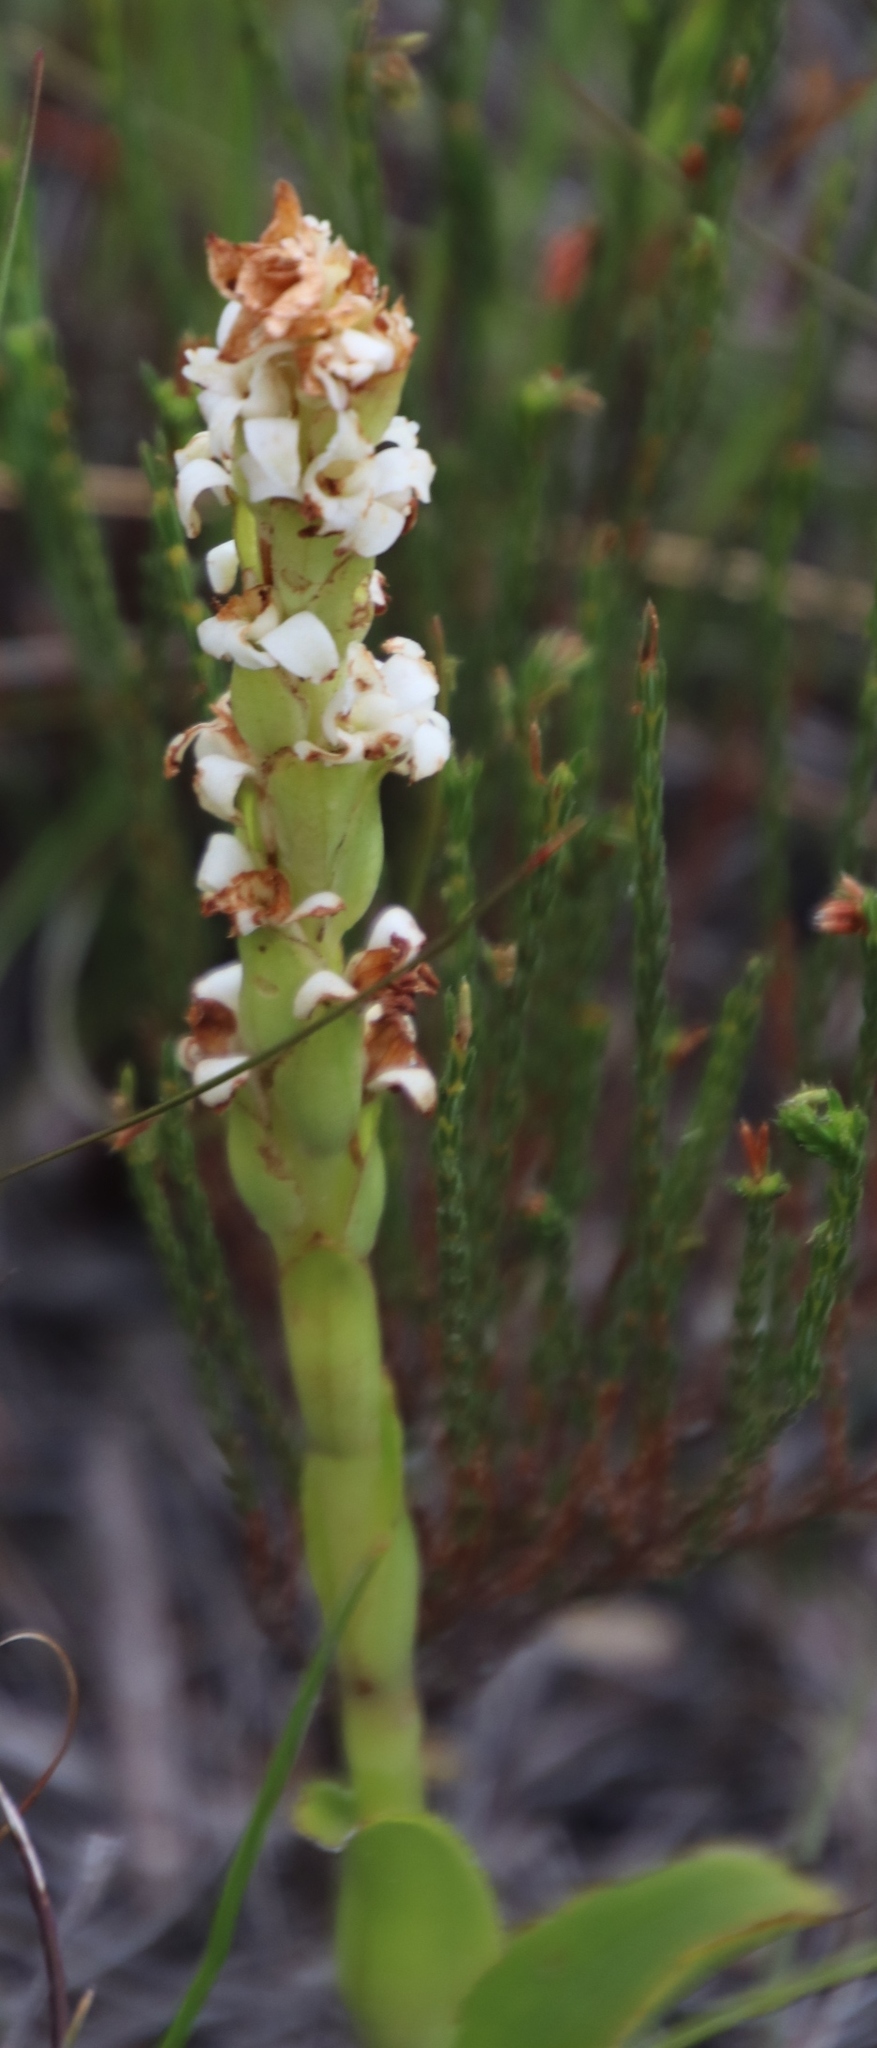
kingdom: Plantae
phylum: Tracheophyta
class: Liliopsida
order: Asparagales
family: Orchidaceae
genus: Satyrium
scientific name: Satyrium stenopetalum
